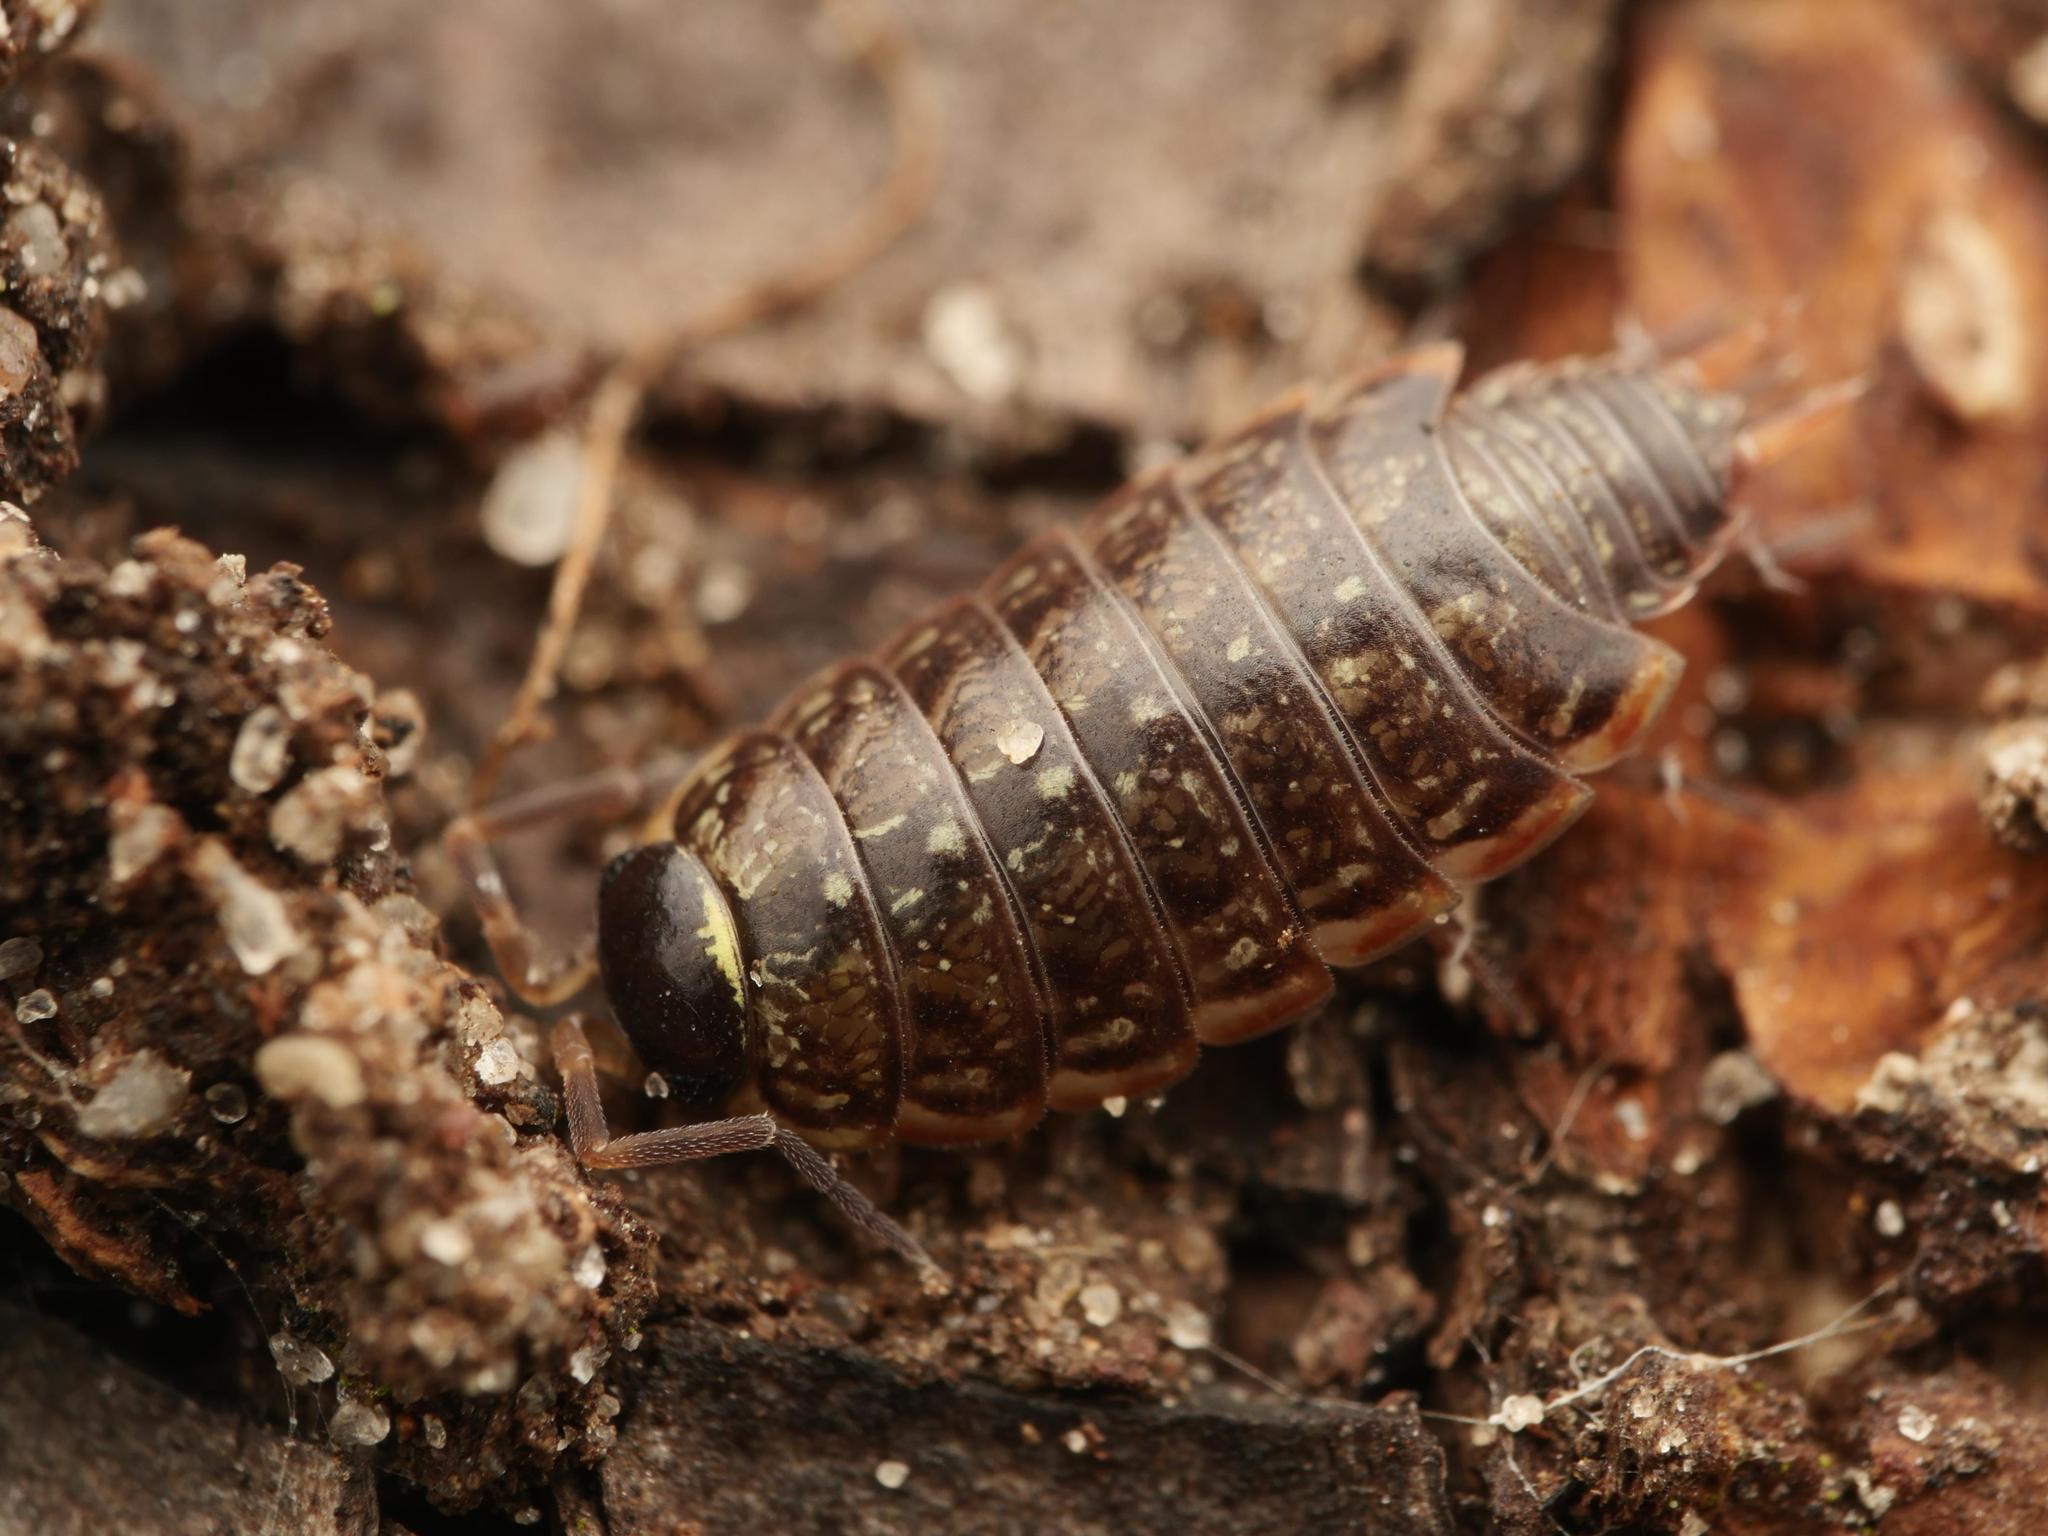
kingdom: Animalia
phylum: Arthropoda
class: Malacostraca
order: Isopoda
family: Philosciidae
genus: Philoscia
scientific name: Philoscia muscorum
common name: Common striped woodlouse
